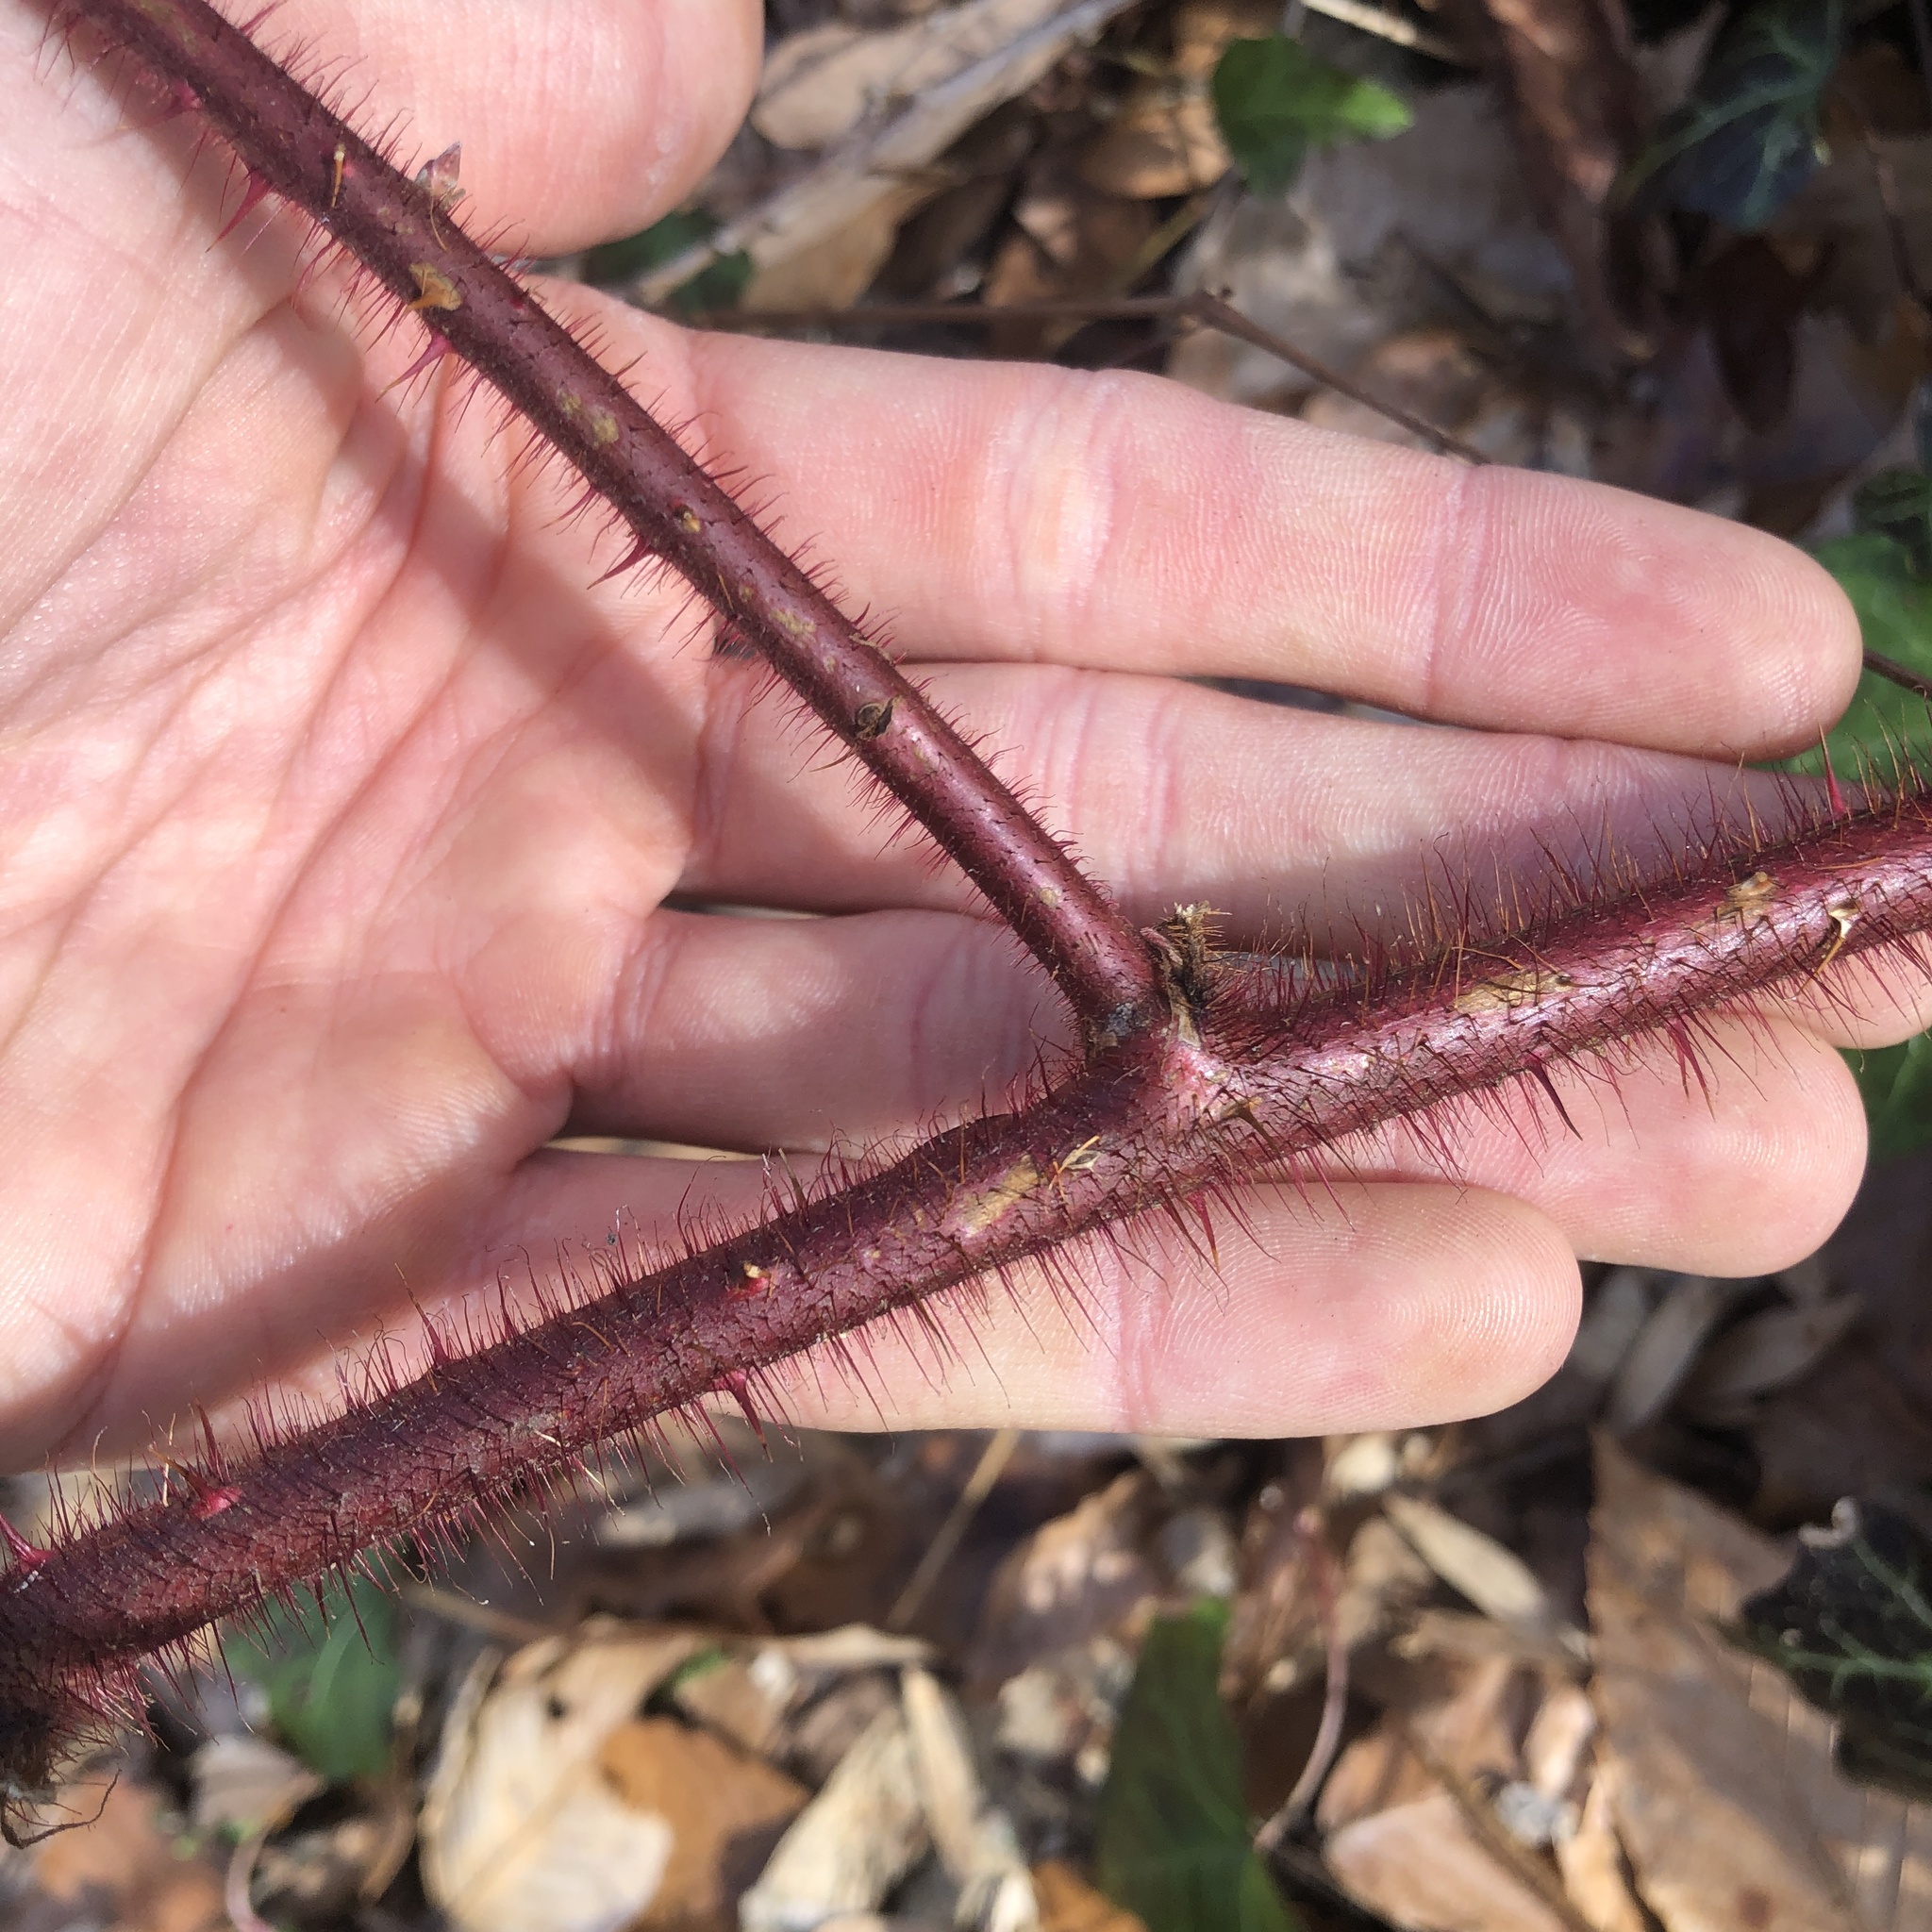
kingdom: Plantae
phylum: Tracheophyta
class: Magnoliopsida
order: Rosales
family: Rosaceae
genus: Rubus
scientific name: Rubus phoenicolasius
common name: Japanese wineberry
